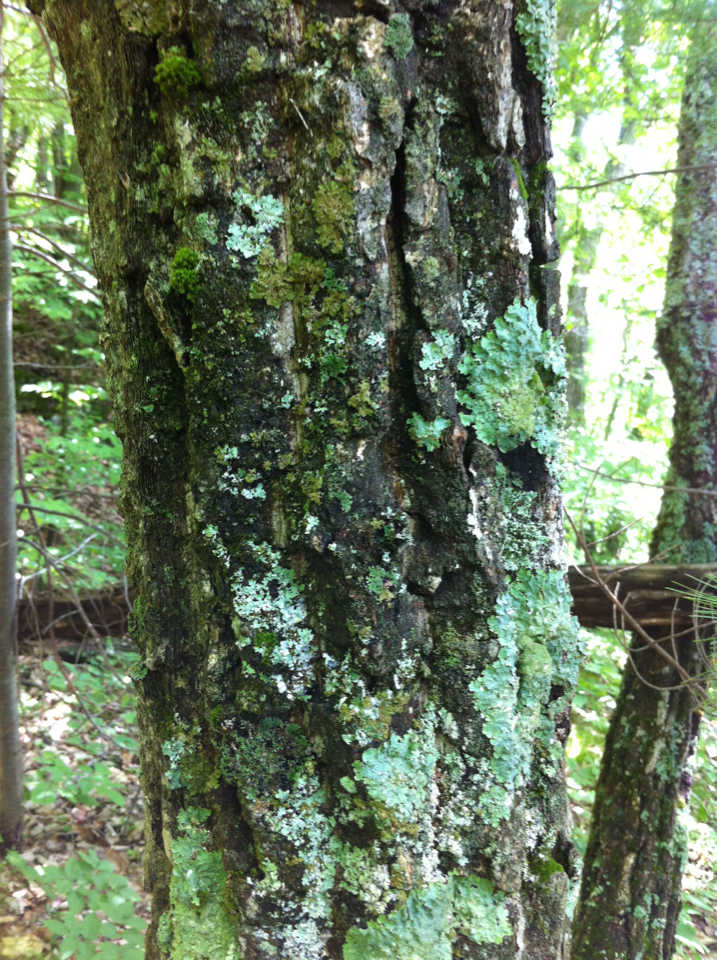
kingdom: Plantae
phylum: Tracheophyta
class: Magnoliopsida
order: Fagales
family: Fagaceae
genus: Quercus
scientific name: Quercus saulii
